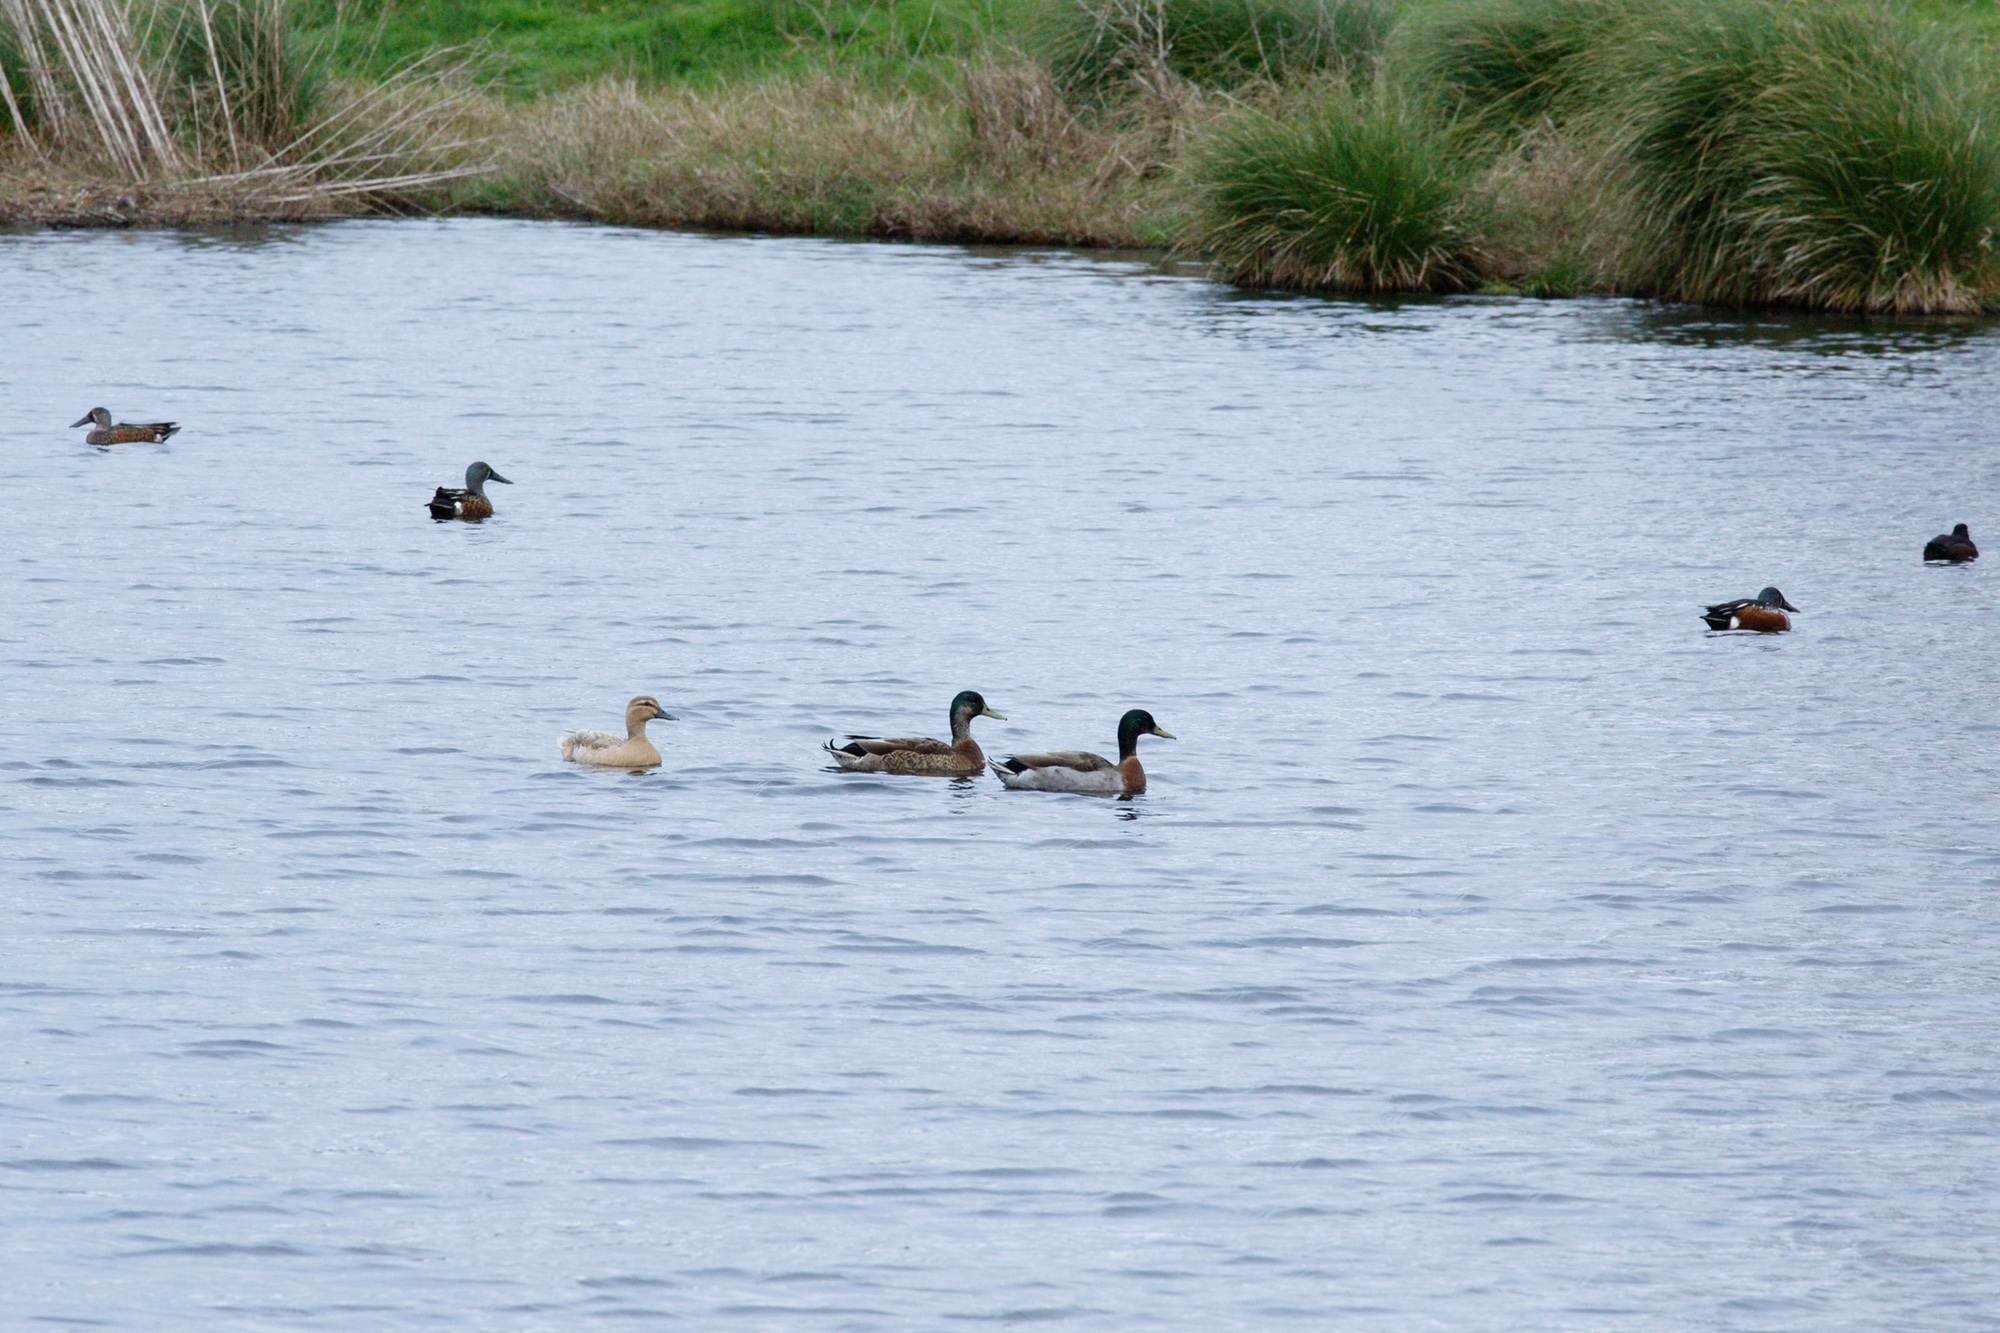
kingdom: Animalia
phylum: Chordata
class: Aves
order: Anseriformes
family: Anatidae
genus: Anas
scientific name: Anas platyrhynchos
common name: Mallard
